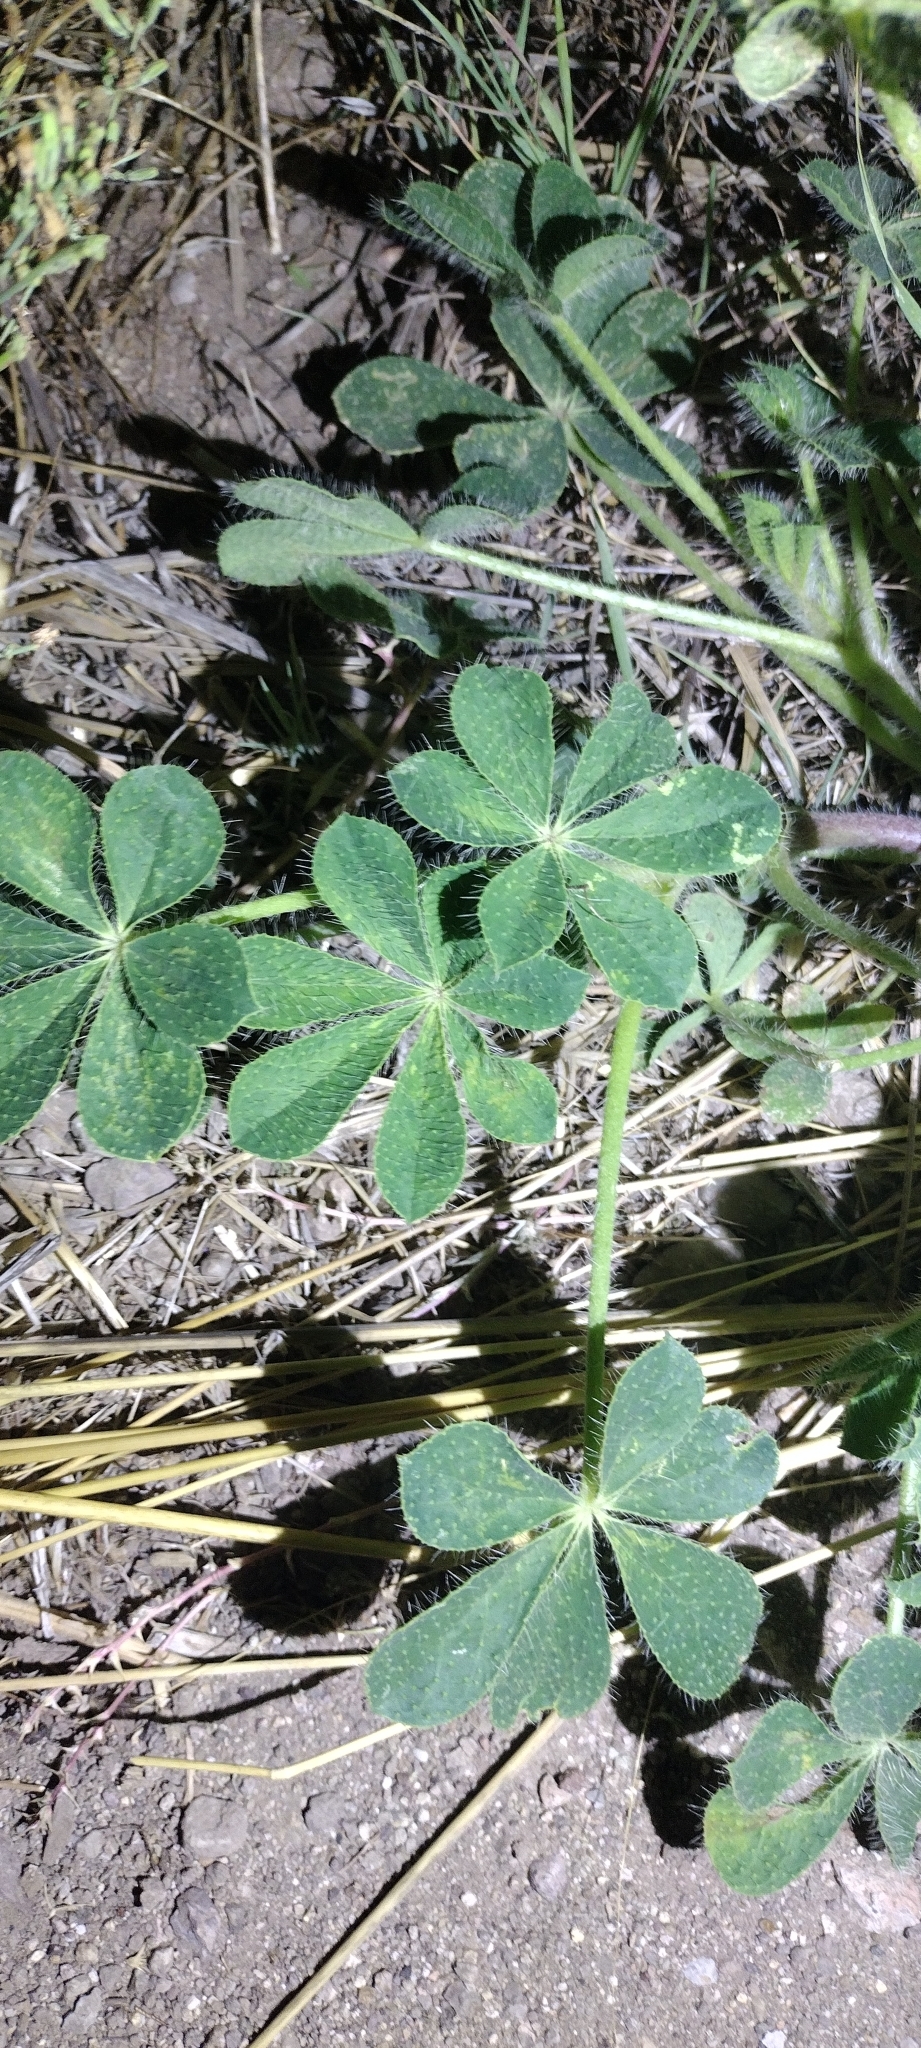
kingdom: Plantae
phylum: Tracheophyta
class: Magnoliopsida
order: Fabales
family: Fabaceae
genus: Lupinus
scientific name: Lupinus hirsutissimus
